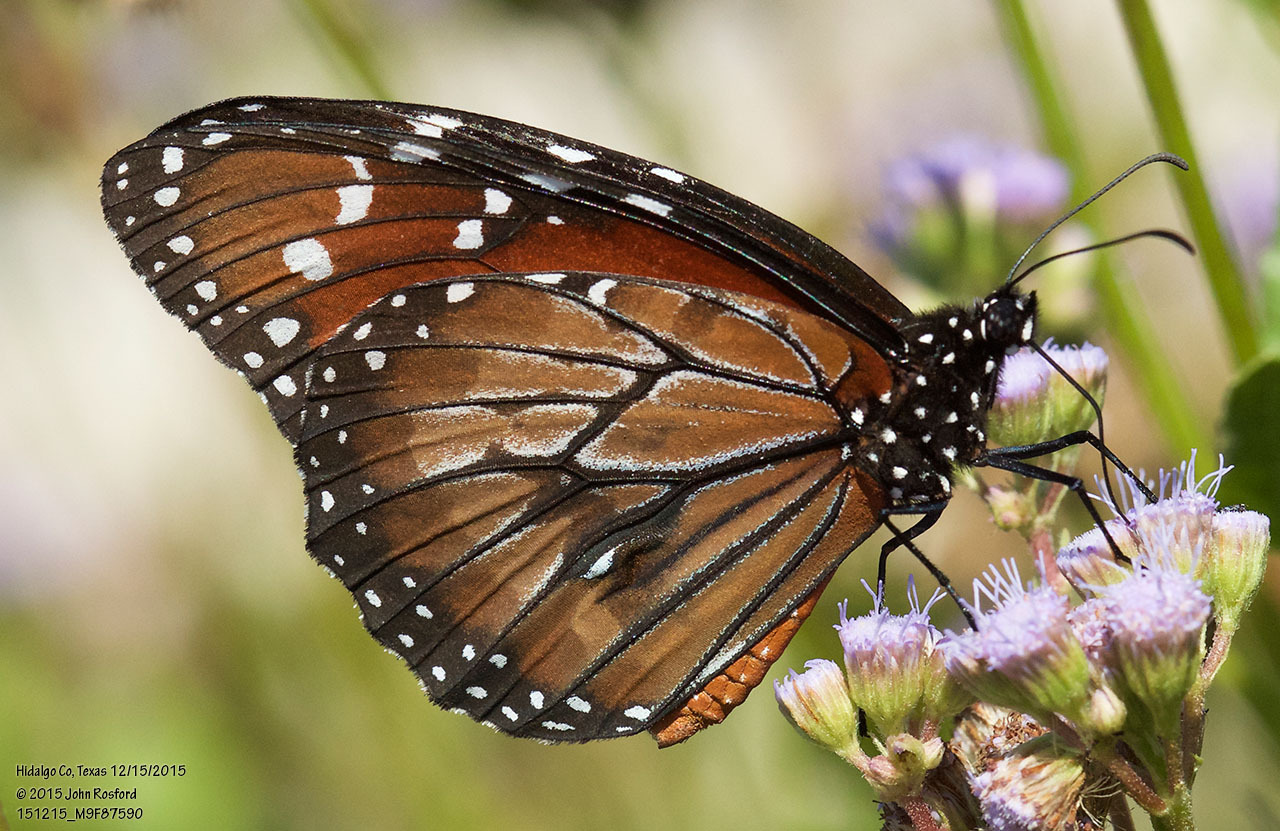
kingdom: Animalia
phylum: Arthropoda
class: Insecta
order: Lepidoptera
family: Nymphalidae
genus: Danaus
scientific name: Danaus eresimus
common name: Soldier
